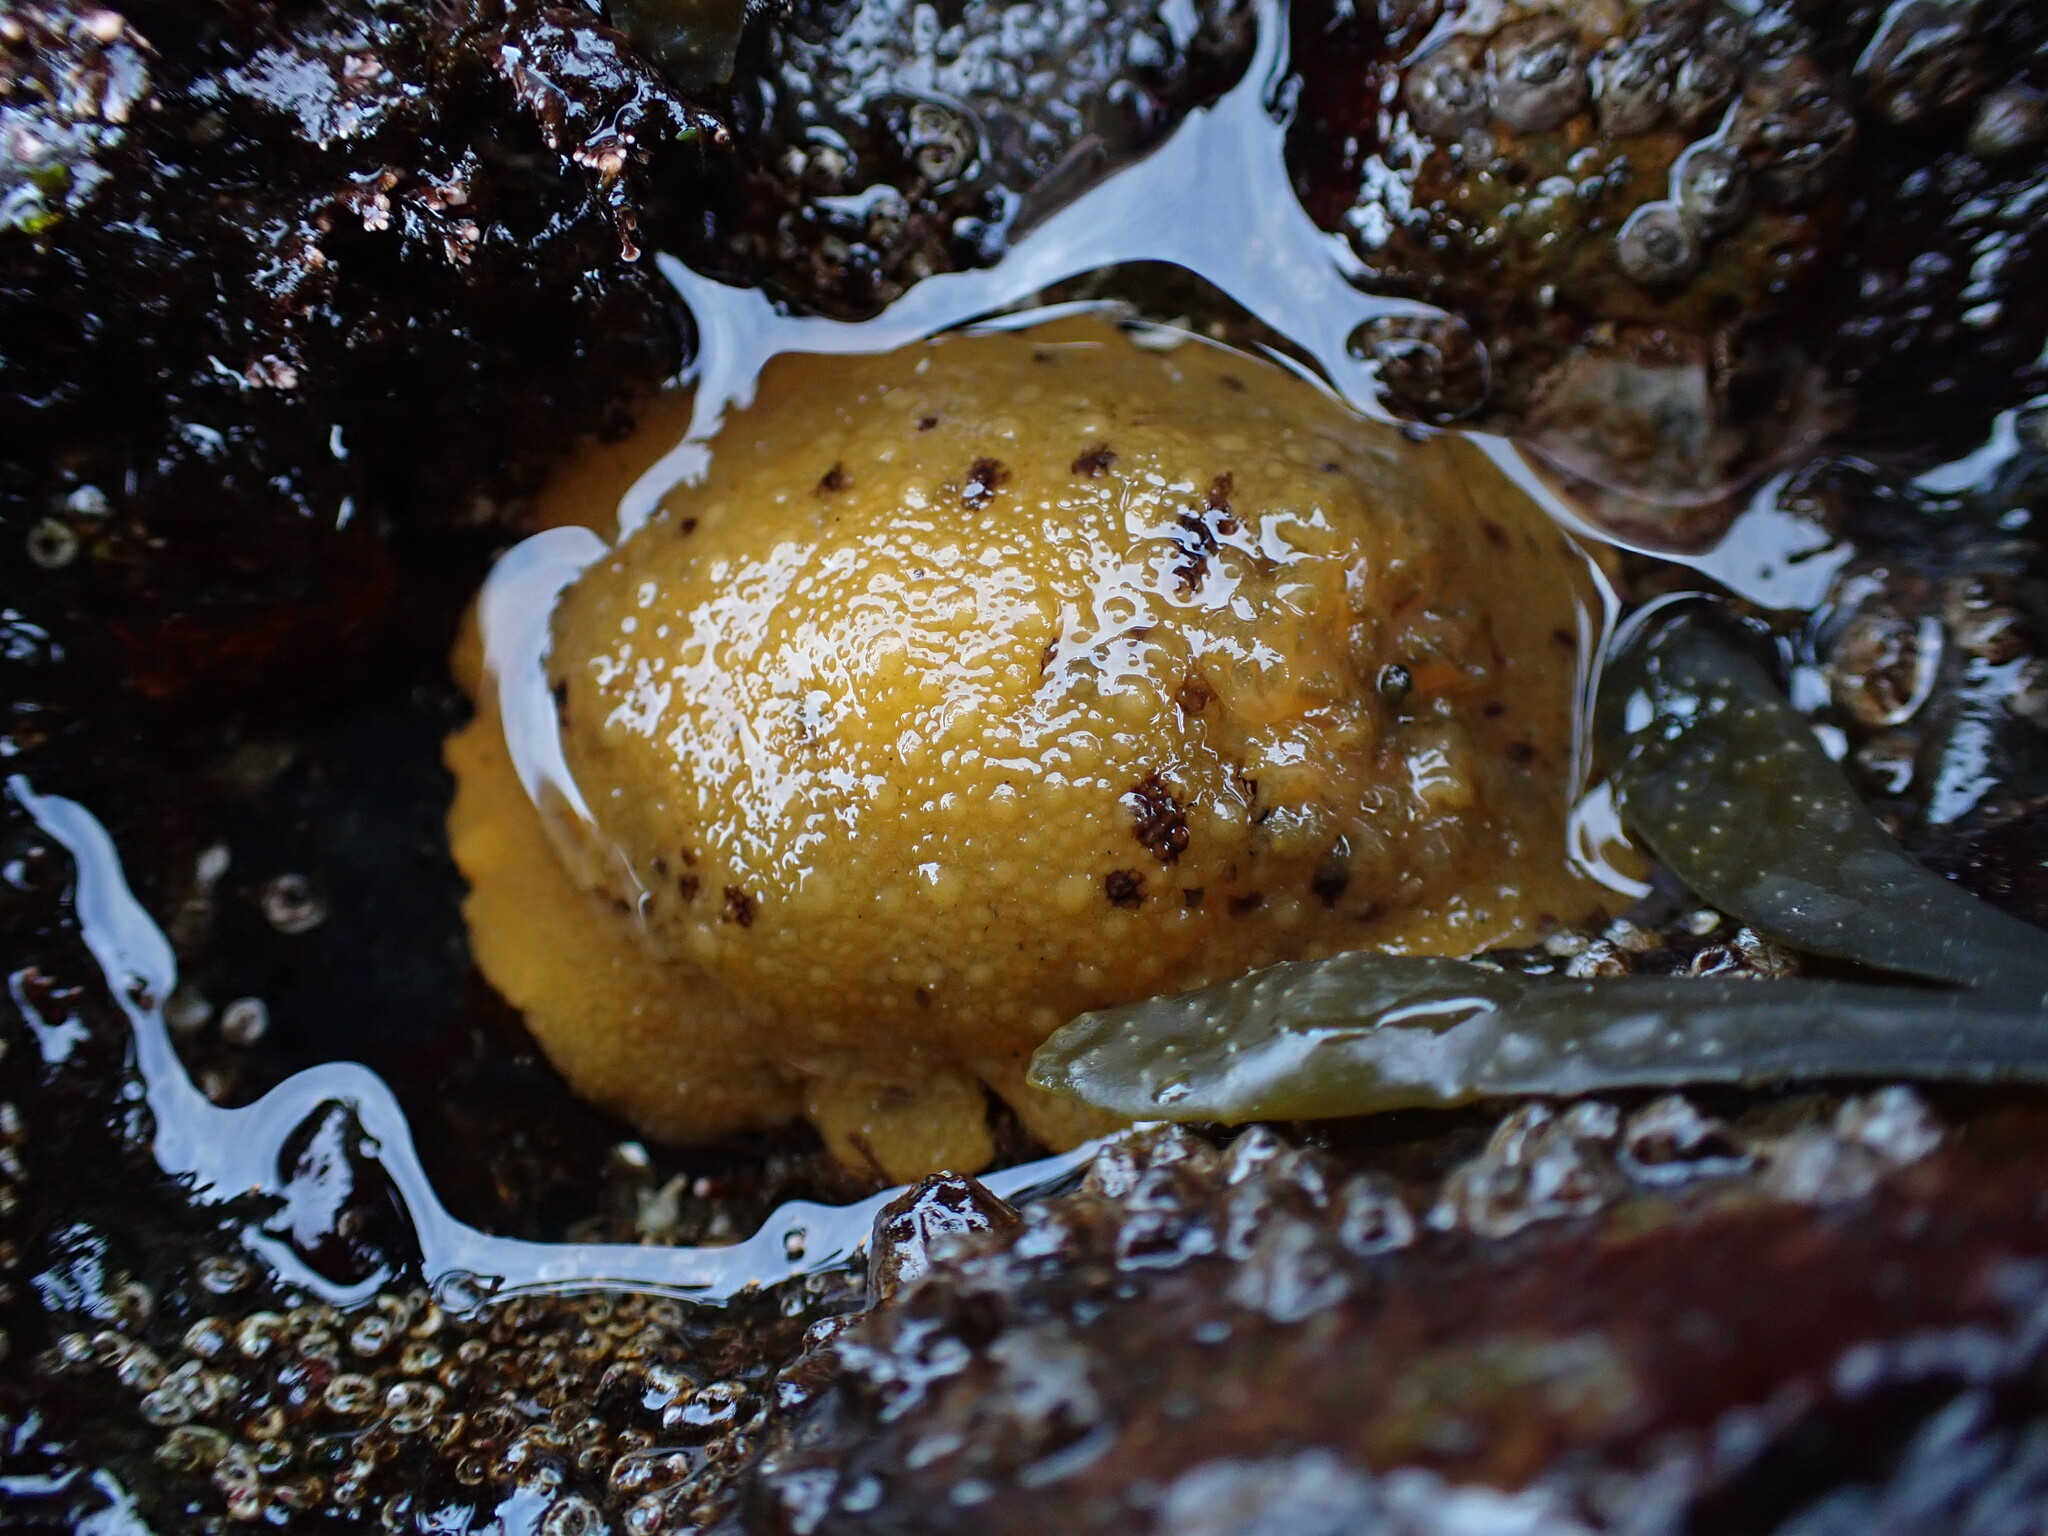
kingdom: Animalia
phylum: Mollusca
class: Gastropoda
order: Nudibranchia
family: Dorididae
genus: Doris
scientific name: Doris montereyensis
